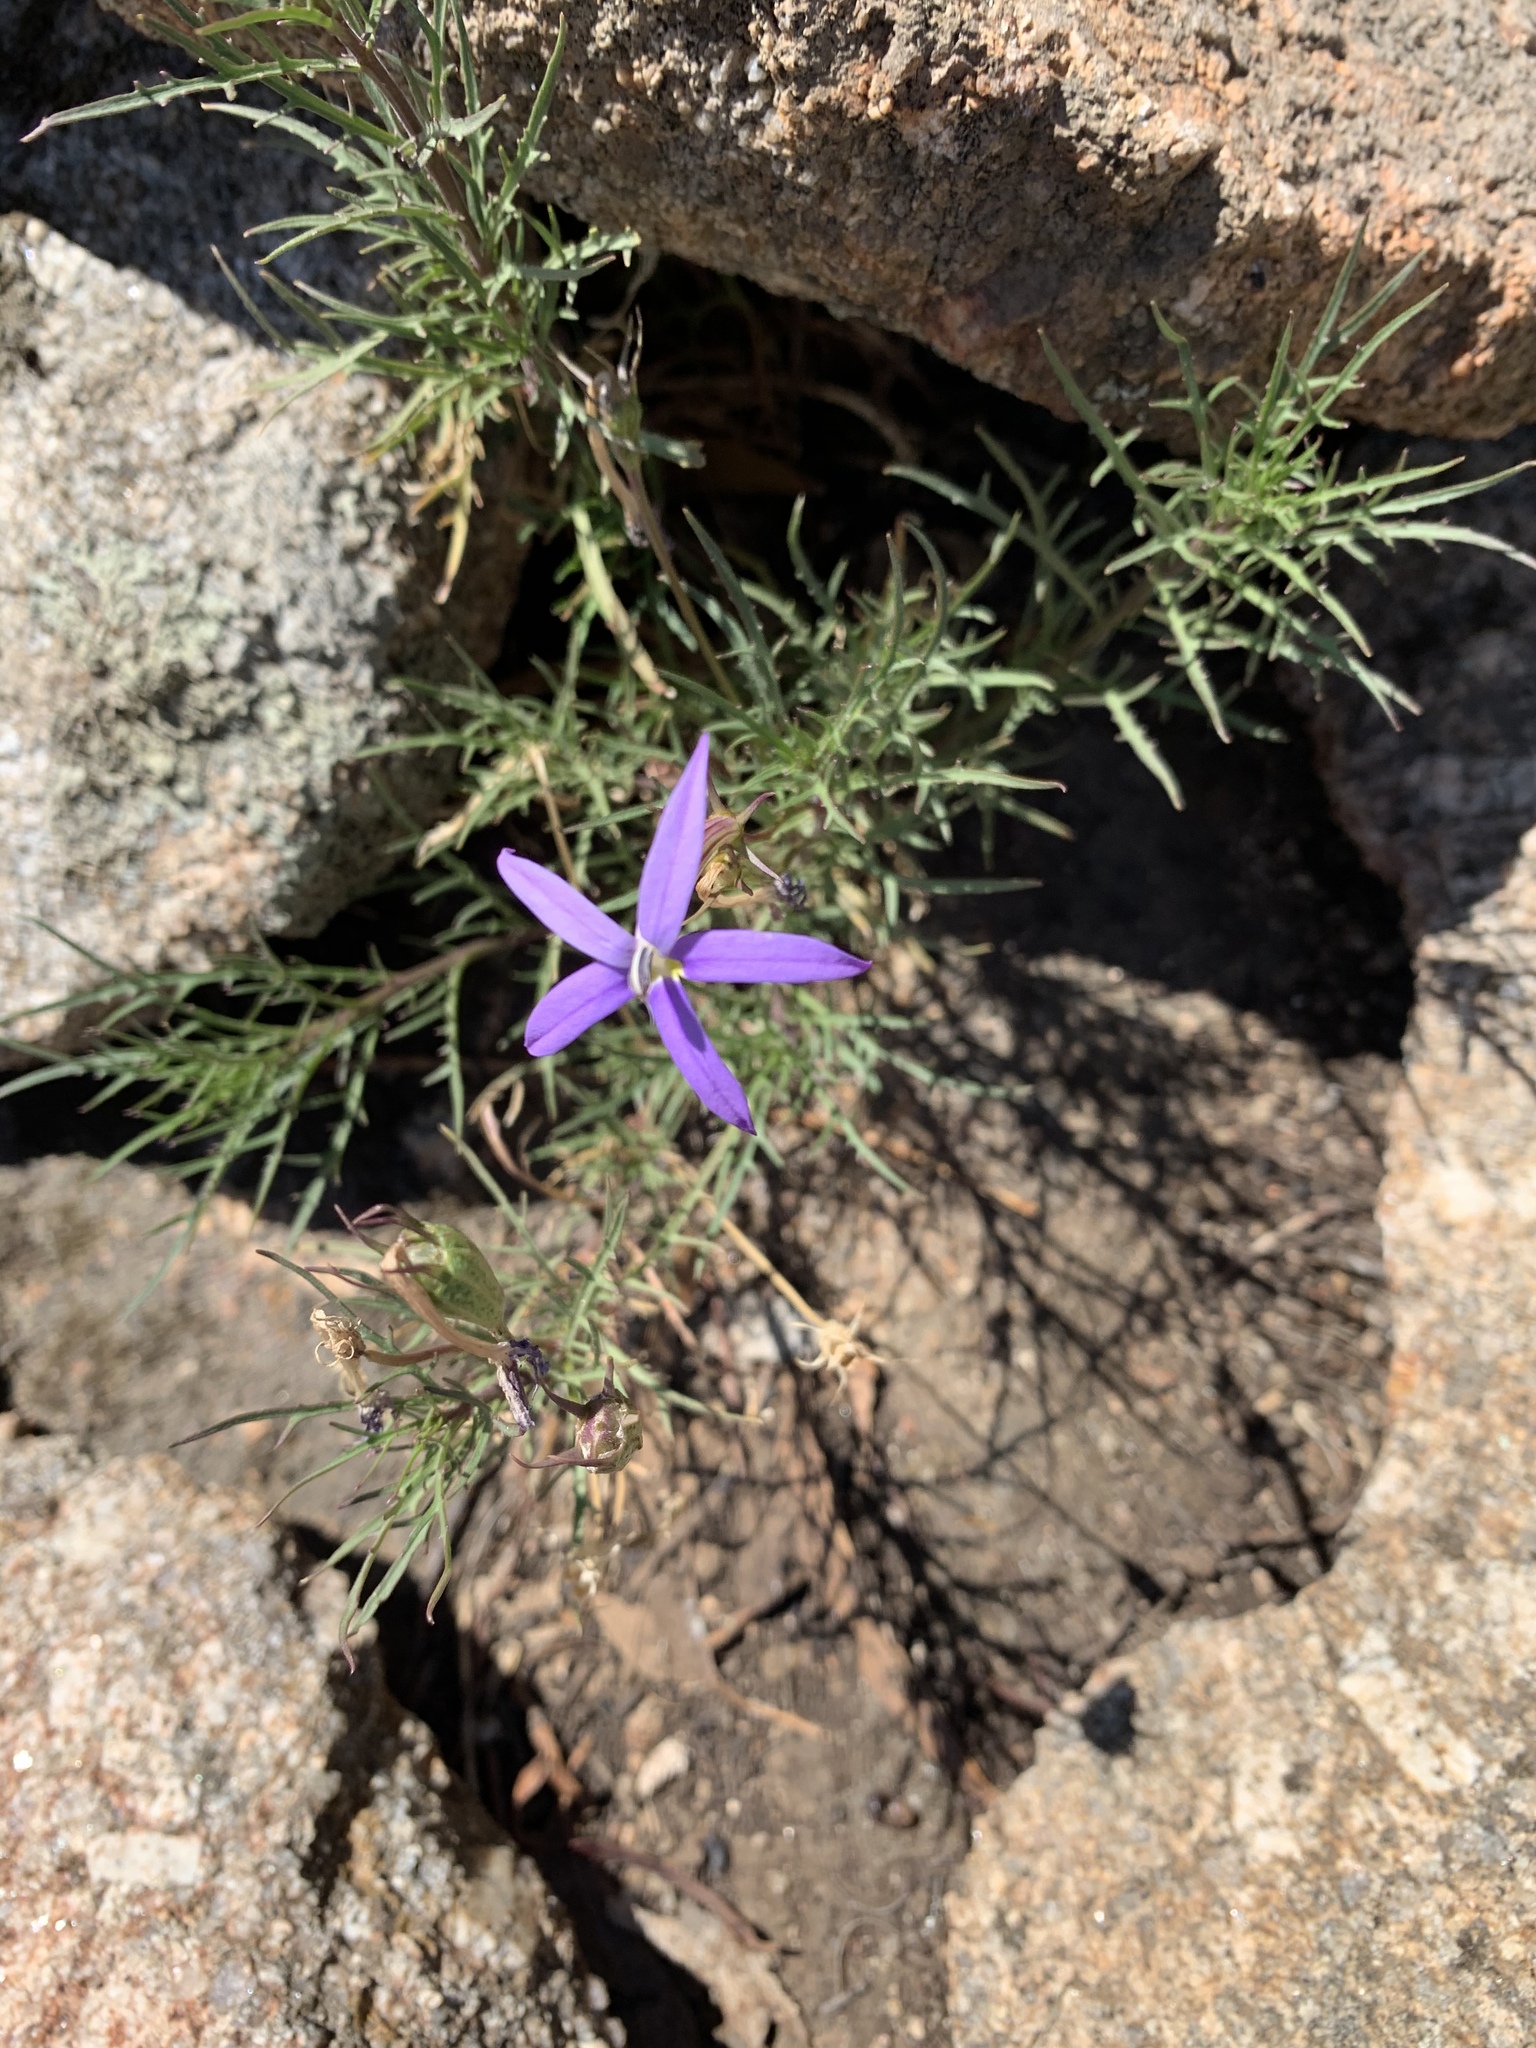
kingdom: Plantae
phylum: Tracheophyta
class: Magnoliopsida
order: Asterales
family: Campanulaceae
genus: Lithotoma
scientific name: Lithotoma axillaris
